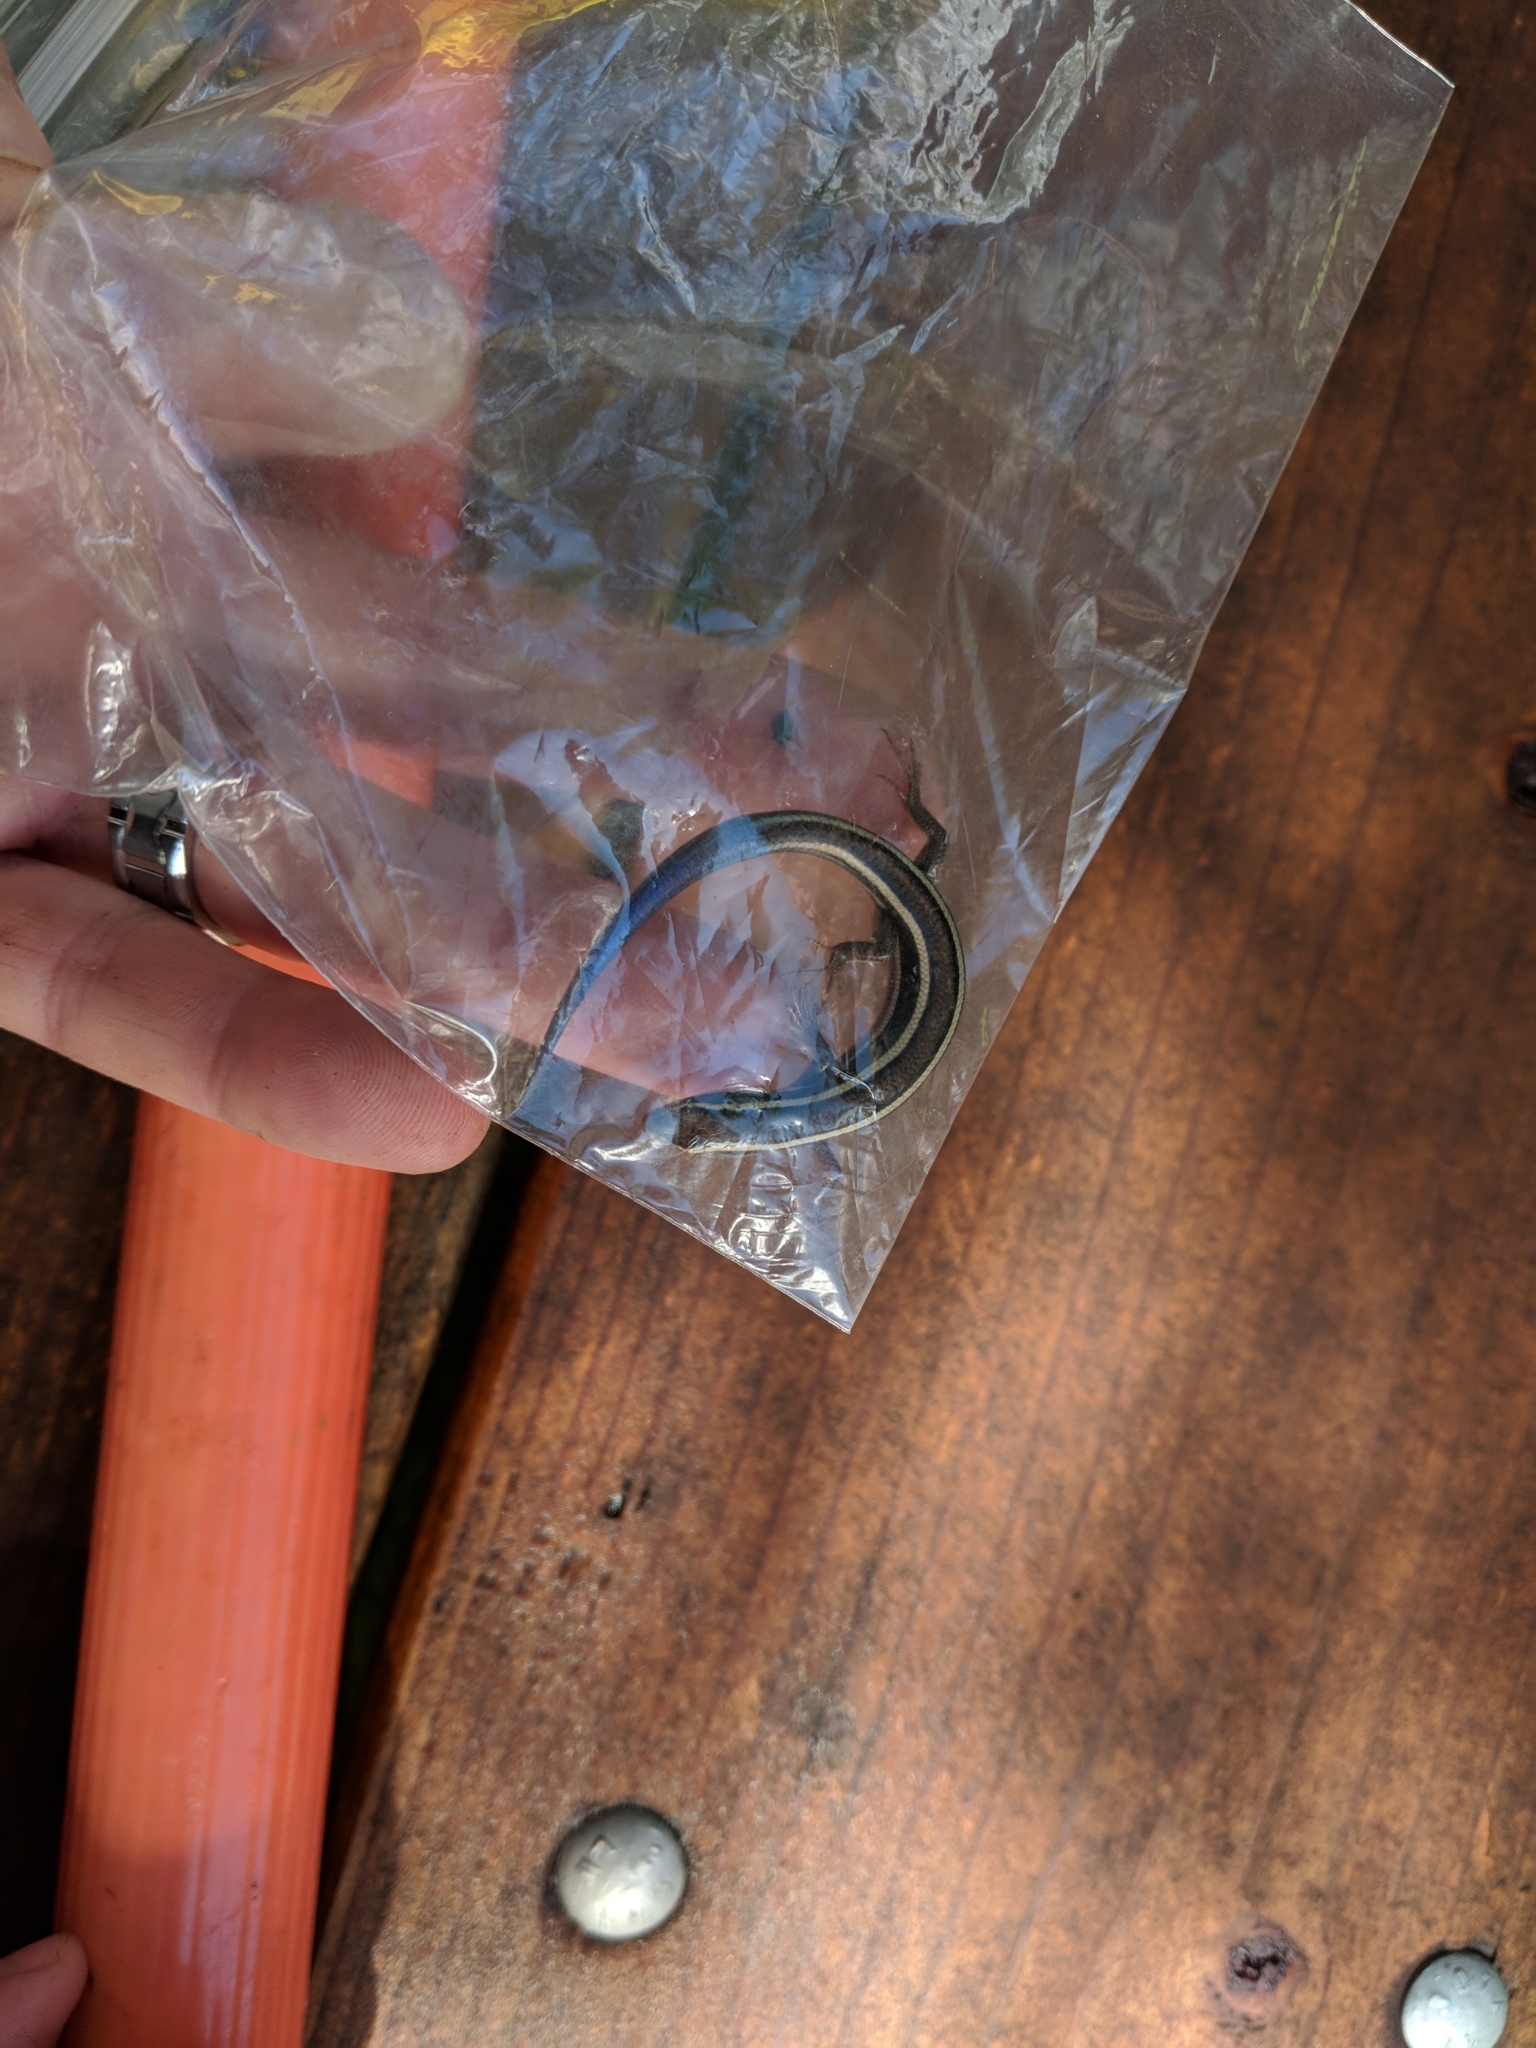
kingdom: Animalia
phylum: Chordata
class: Squamata
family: Scincidae
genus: Plestiodon
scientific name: Plestiodon skiltonianus
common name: Coronado island skink [interparietalis]
